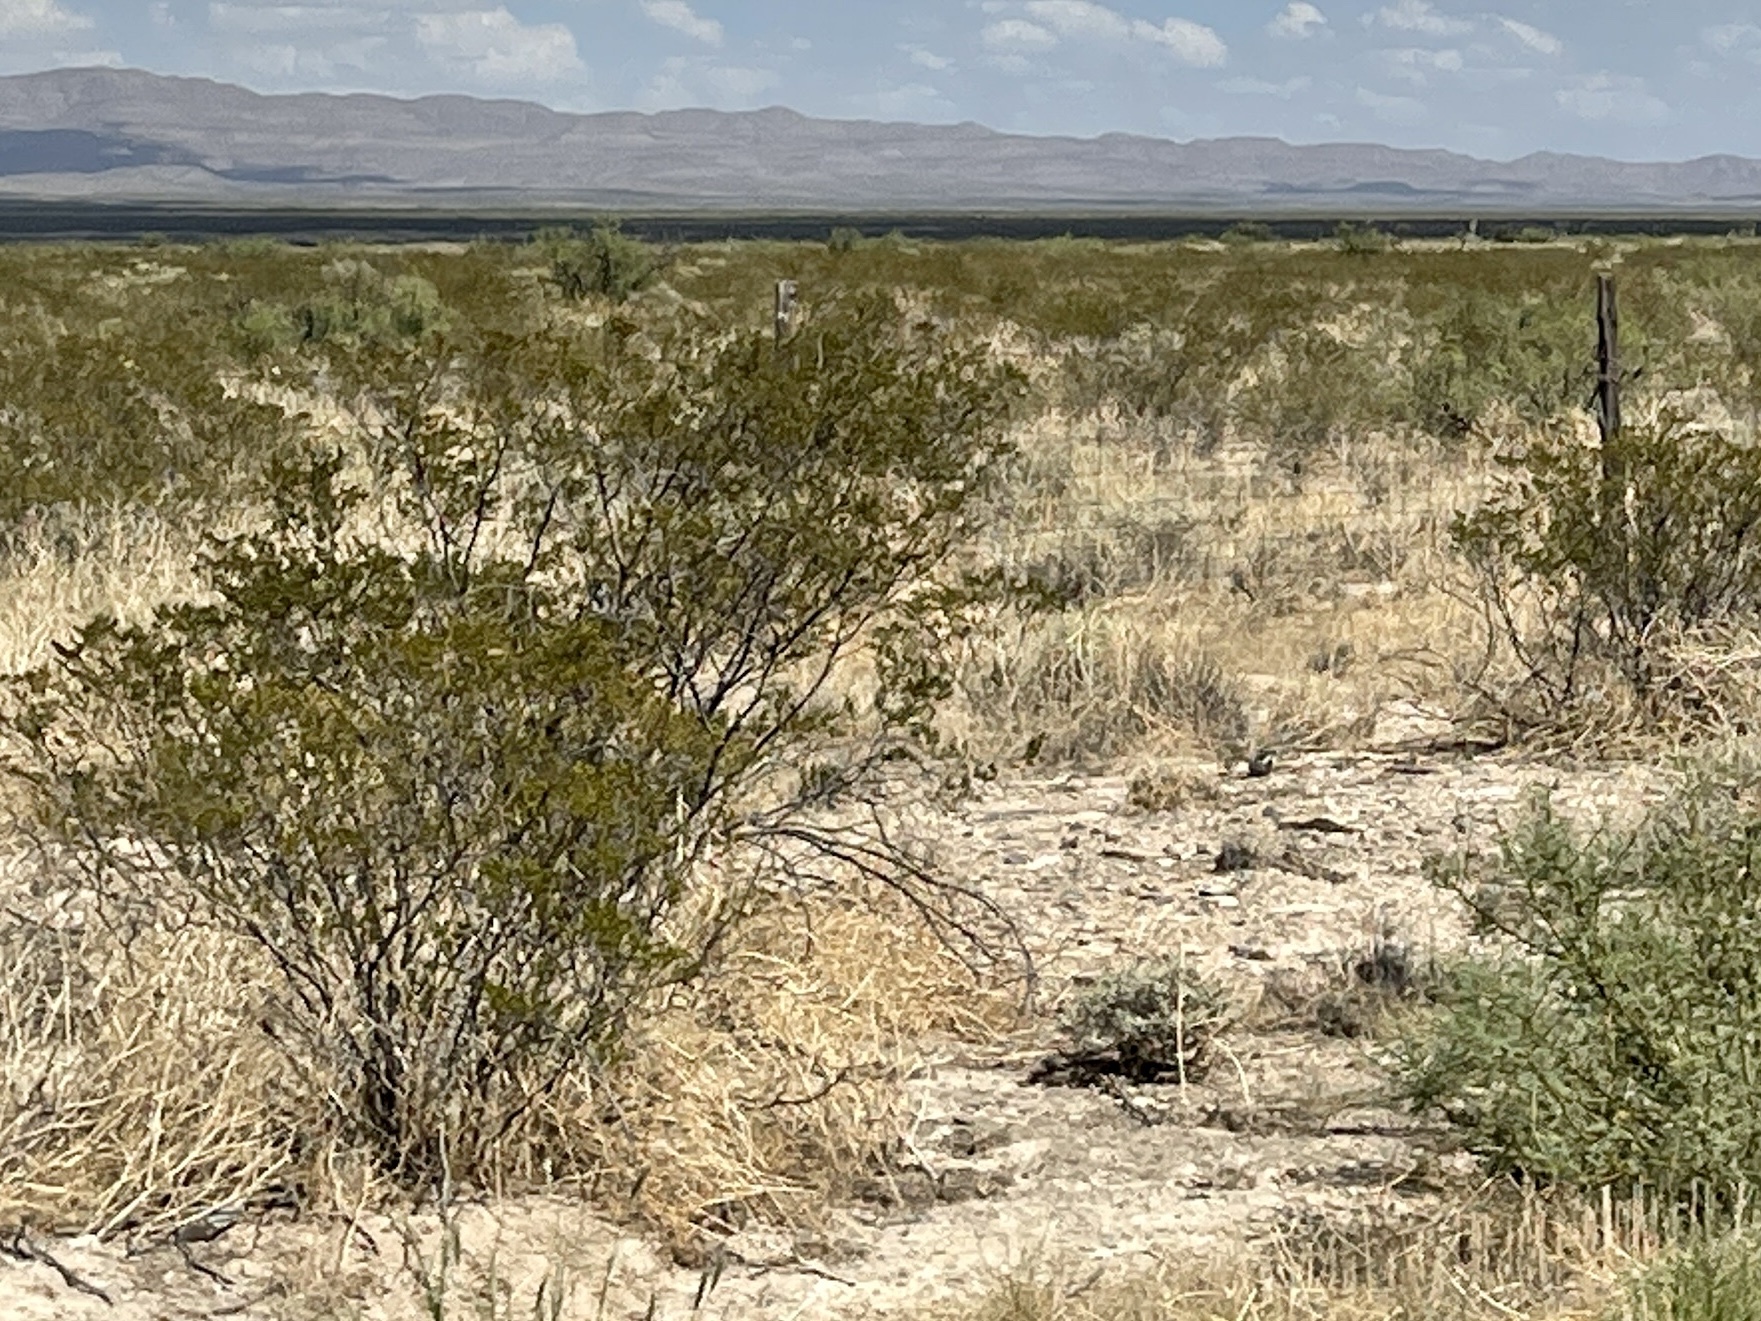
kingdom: Plantae
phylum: Tracheophyta
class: Magnoliopsida
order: Zygophyllales
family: Zygophyllaceae
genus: Larrea
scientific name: Larrea tridentata
